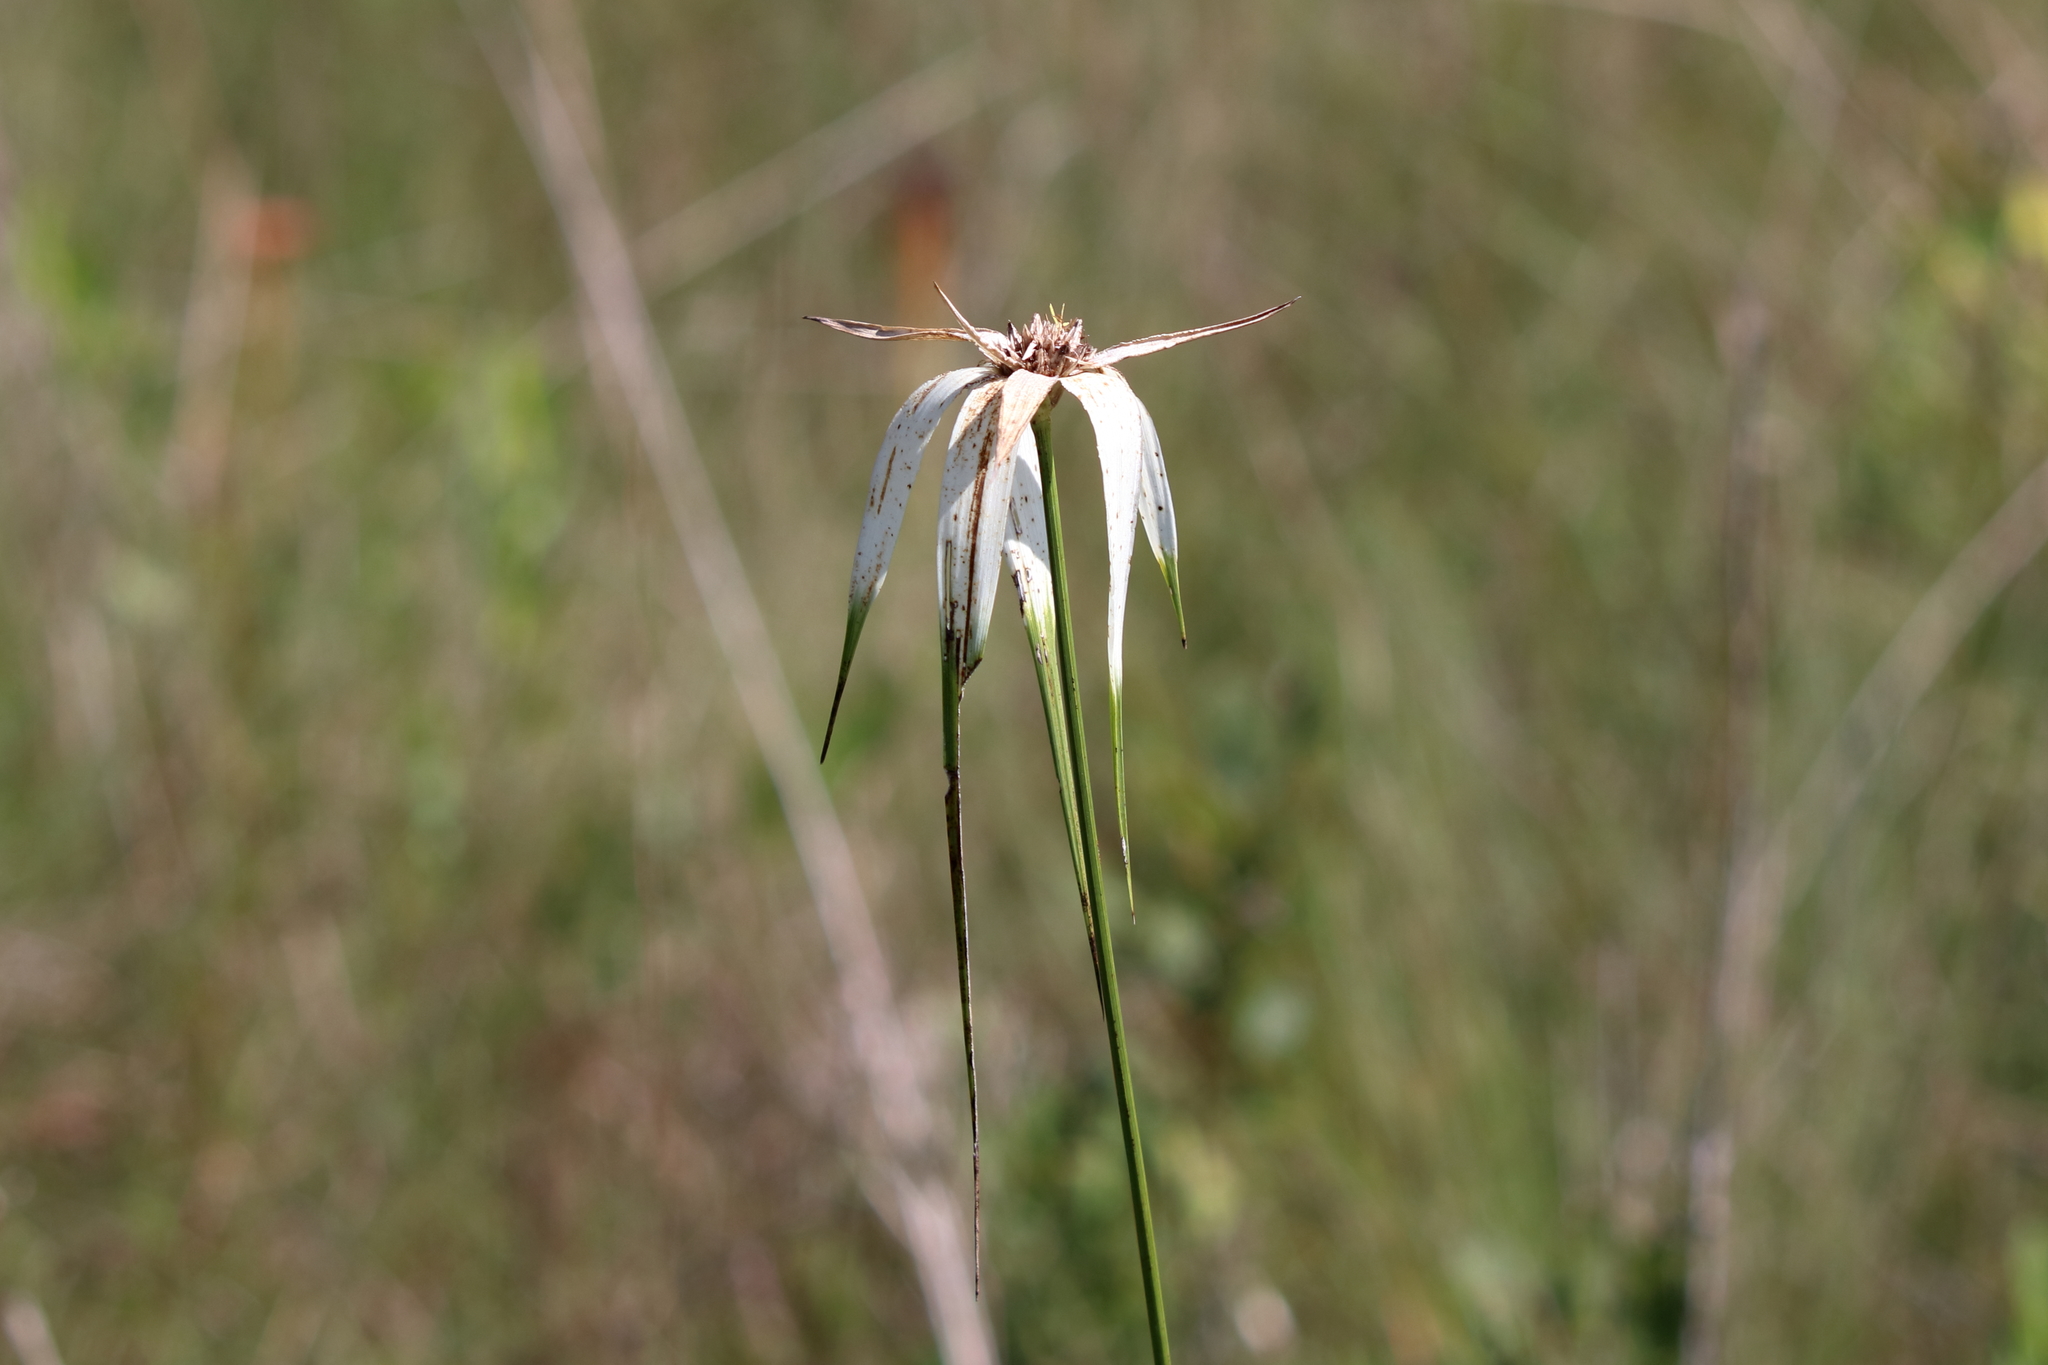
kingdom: Plantae
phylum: Tracheophyta
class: Liliopsida
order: Poales
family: Cyperaceae
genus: Rhynchospora
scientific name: Rhynchospora latifolia
